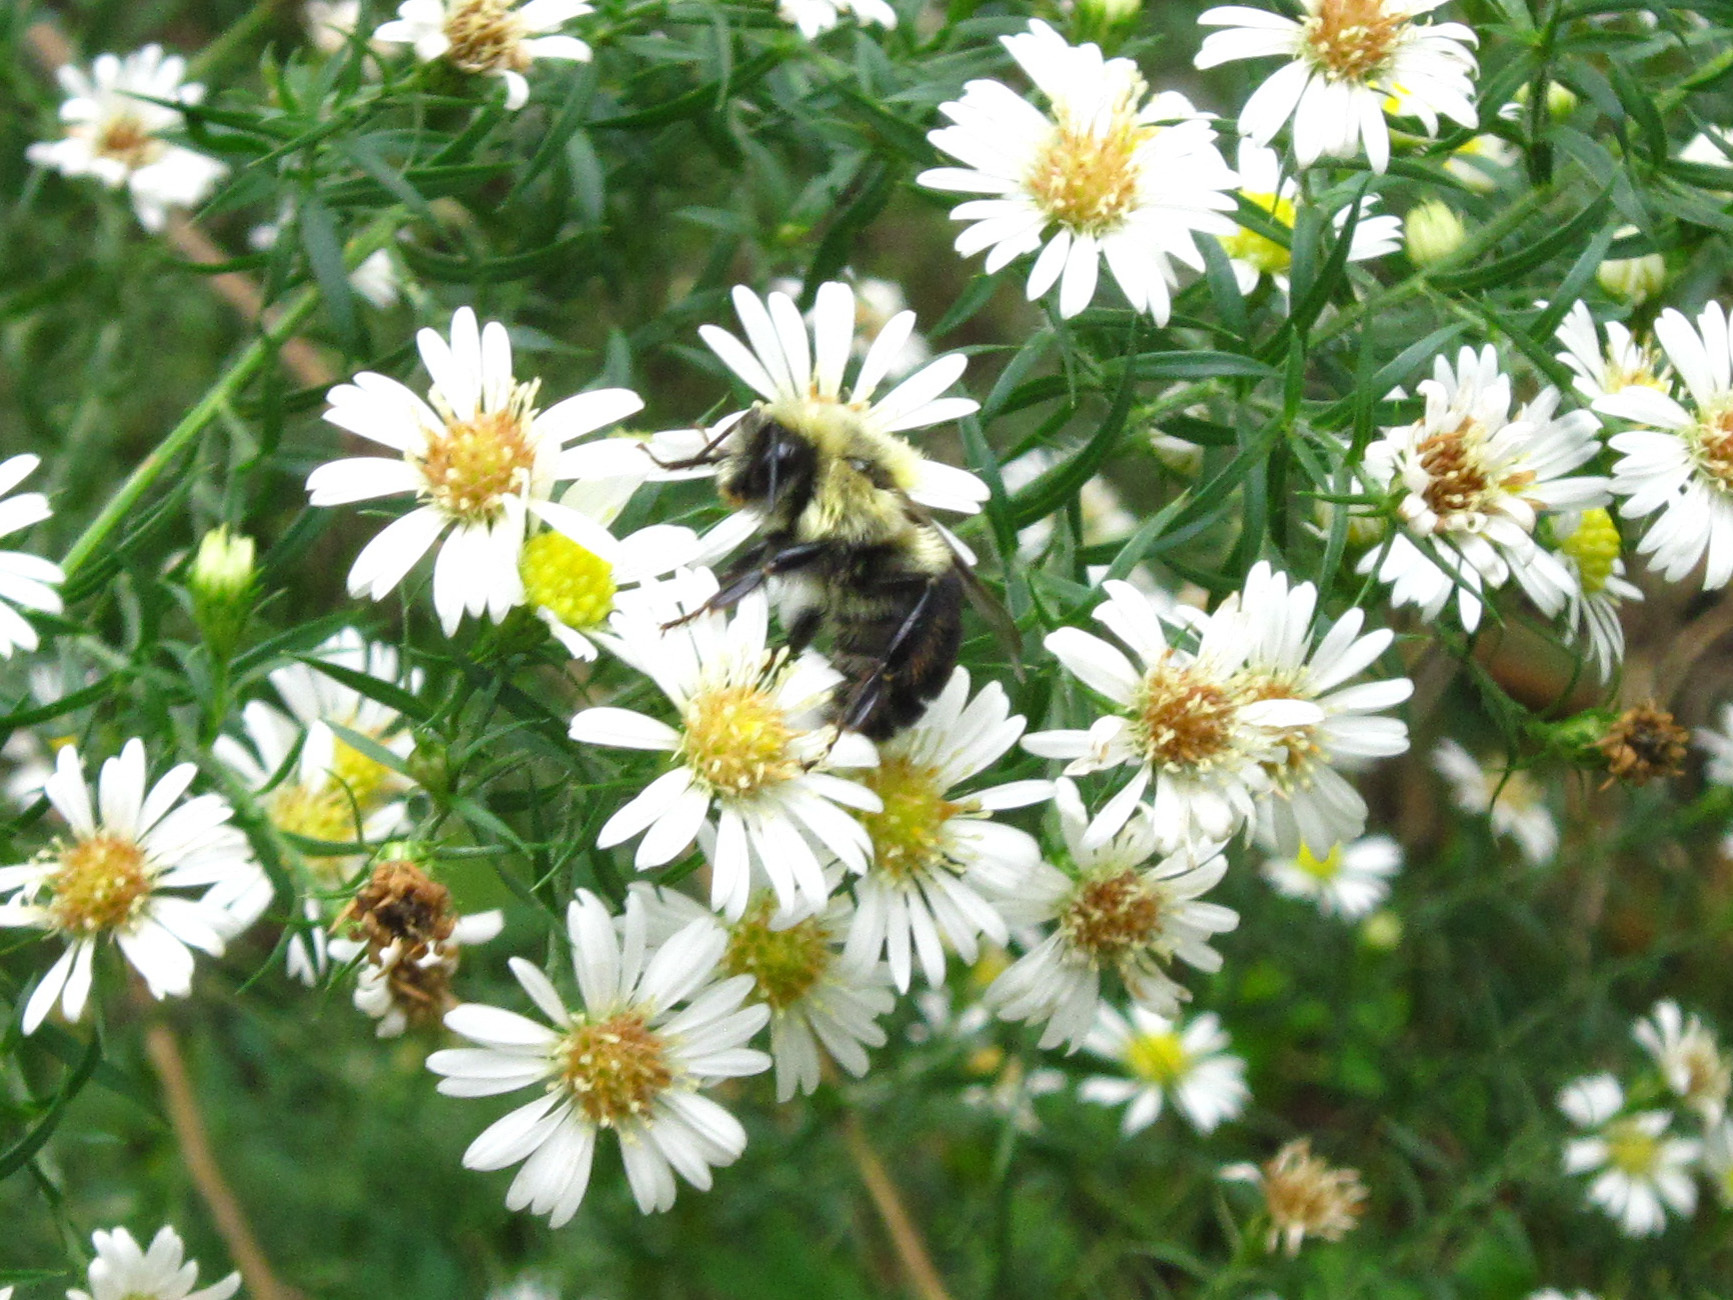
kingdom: Animalia
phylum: Arthropoda
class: Insecta
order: Hymenoptera
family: Apidae
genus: Bombus
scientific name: Bombus impatiens
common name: Common eastern bumble bee
